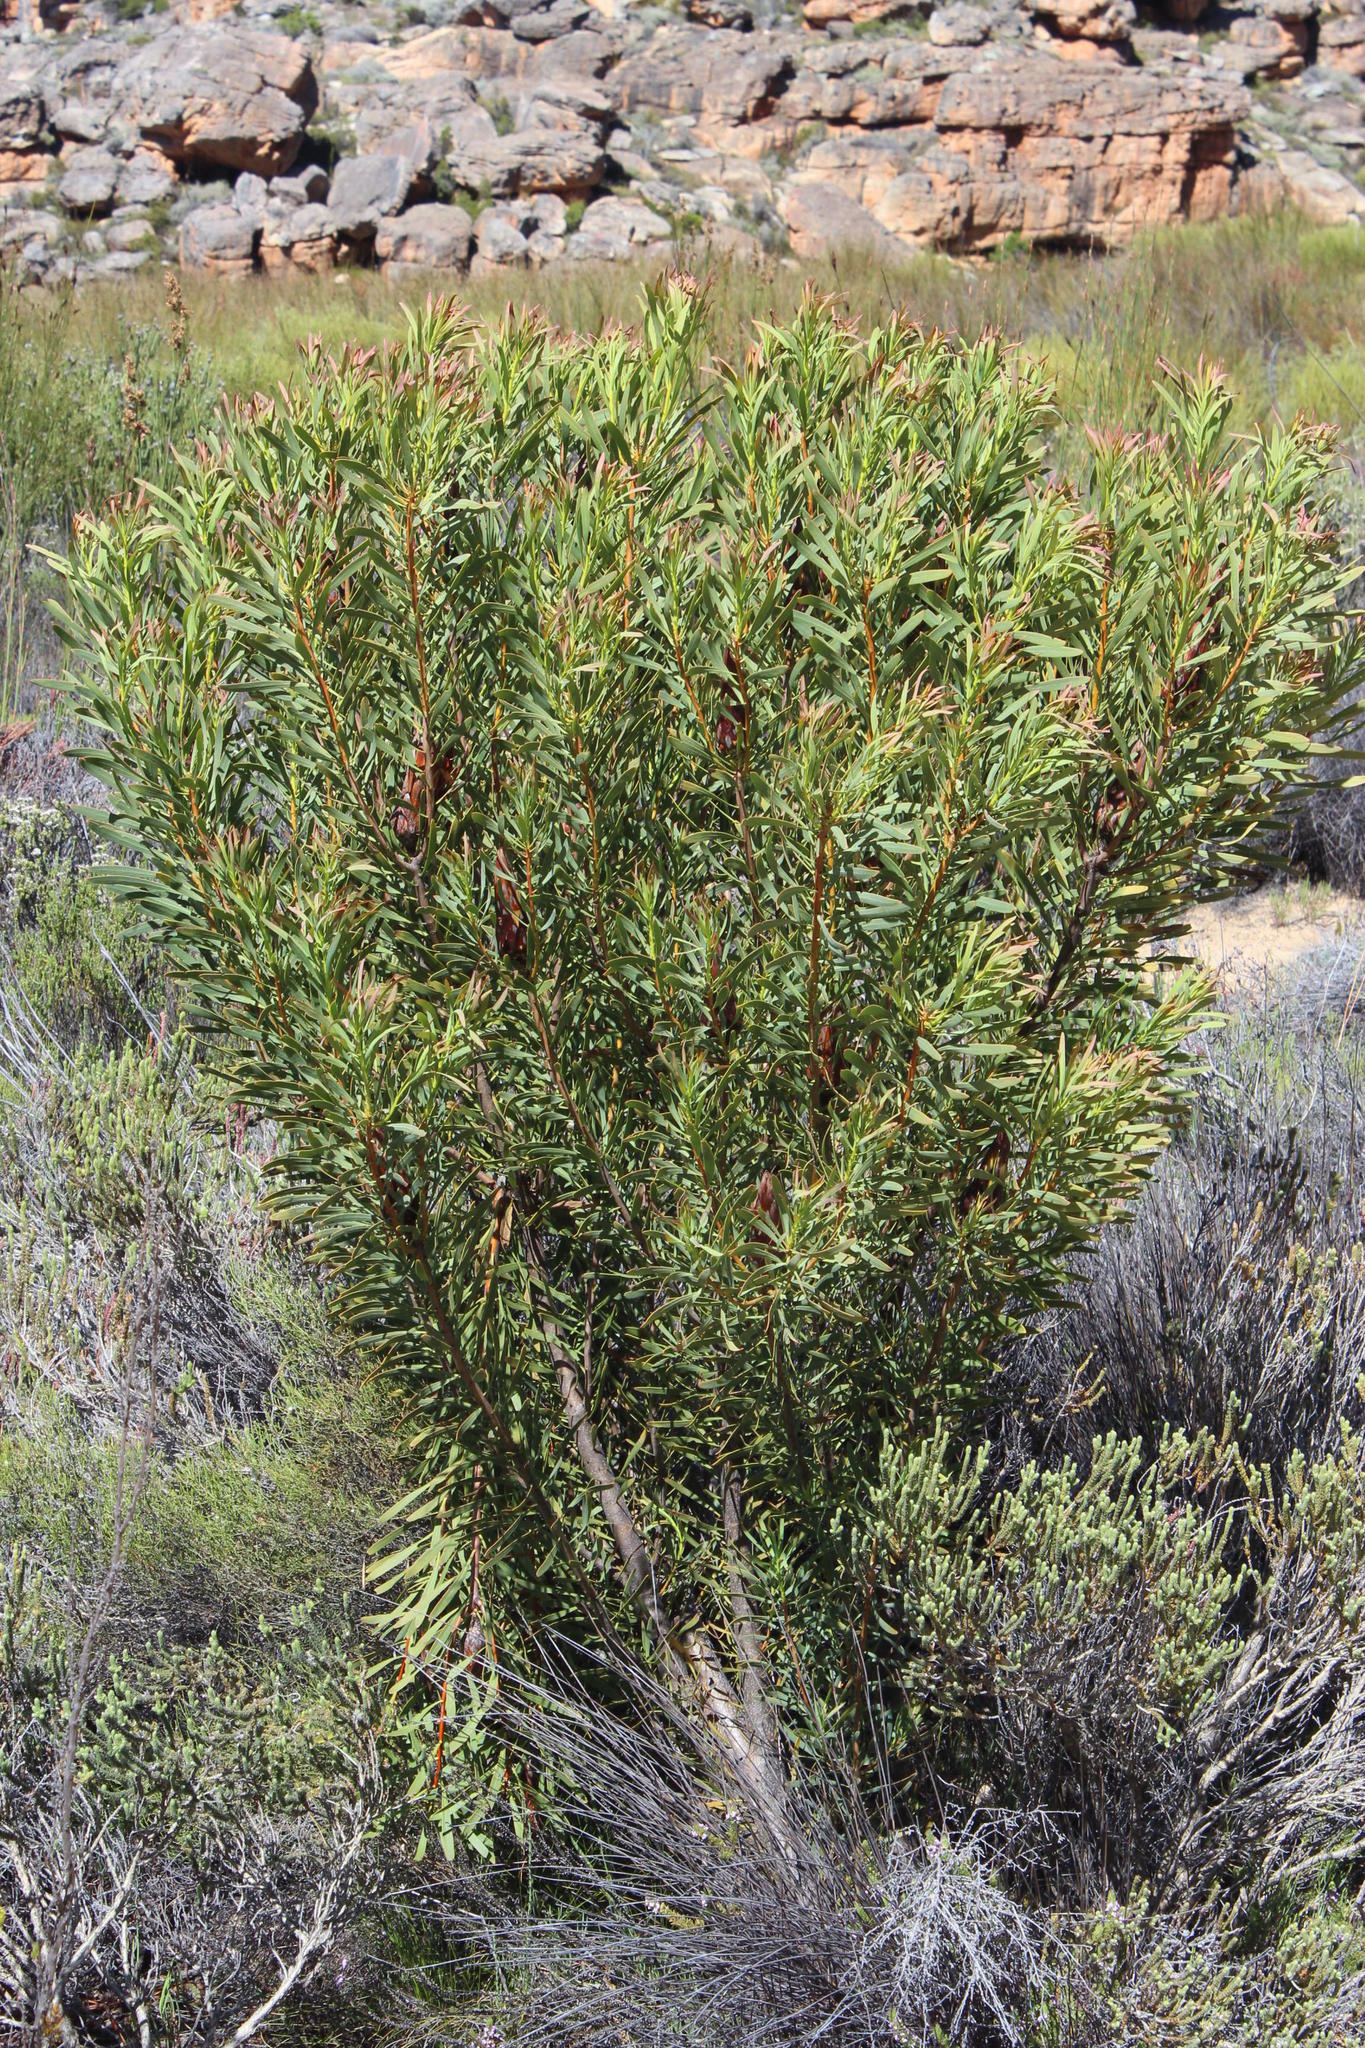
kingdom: Plantae
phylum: Tracheophyta
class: Magnoliopsida
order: Proteales
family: Proteaceae
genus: Protea
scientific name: Protea repens
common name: Sugarbush
